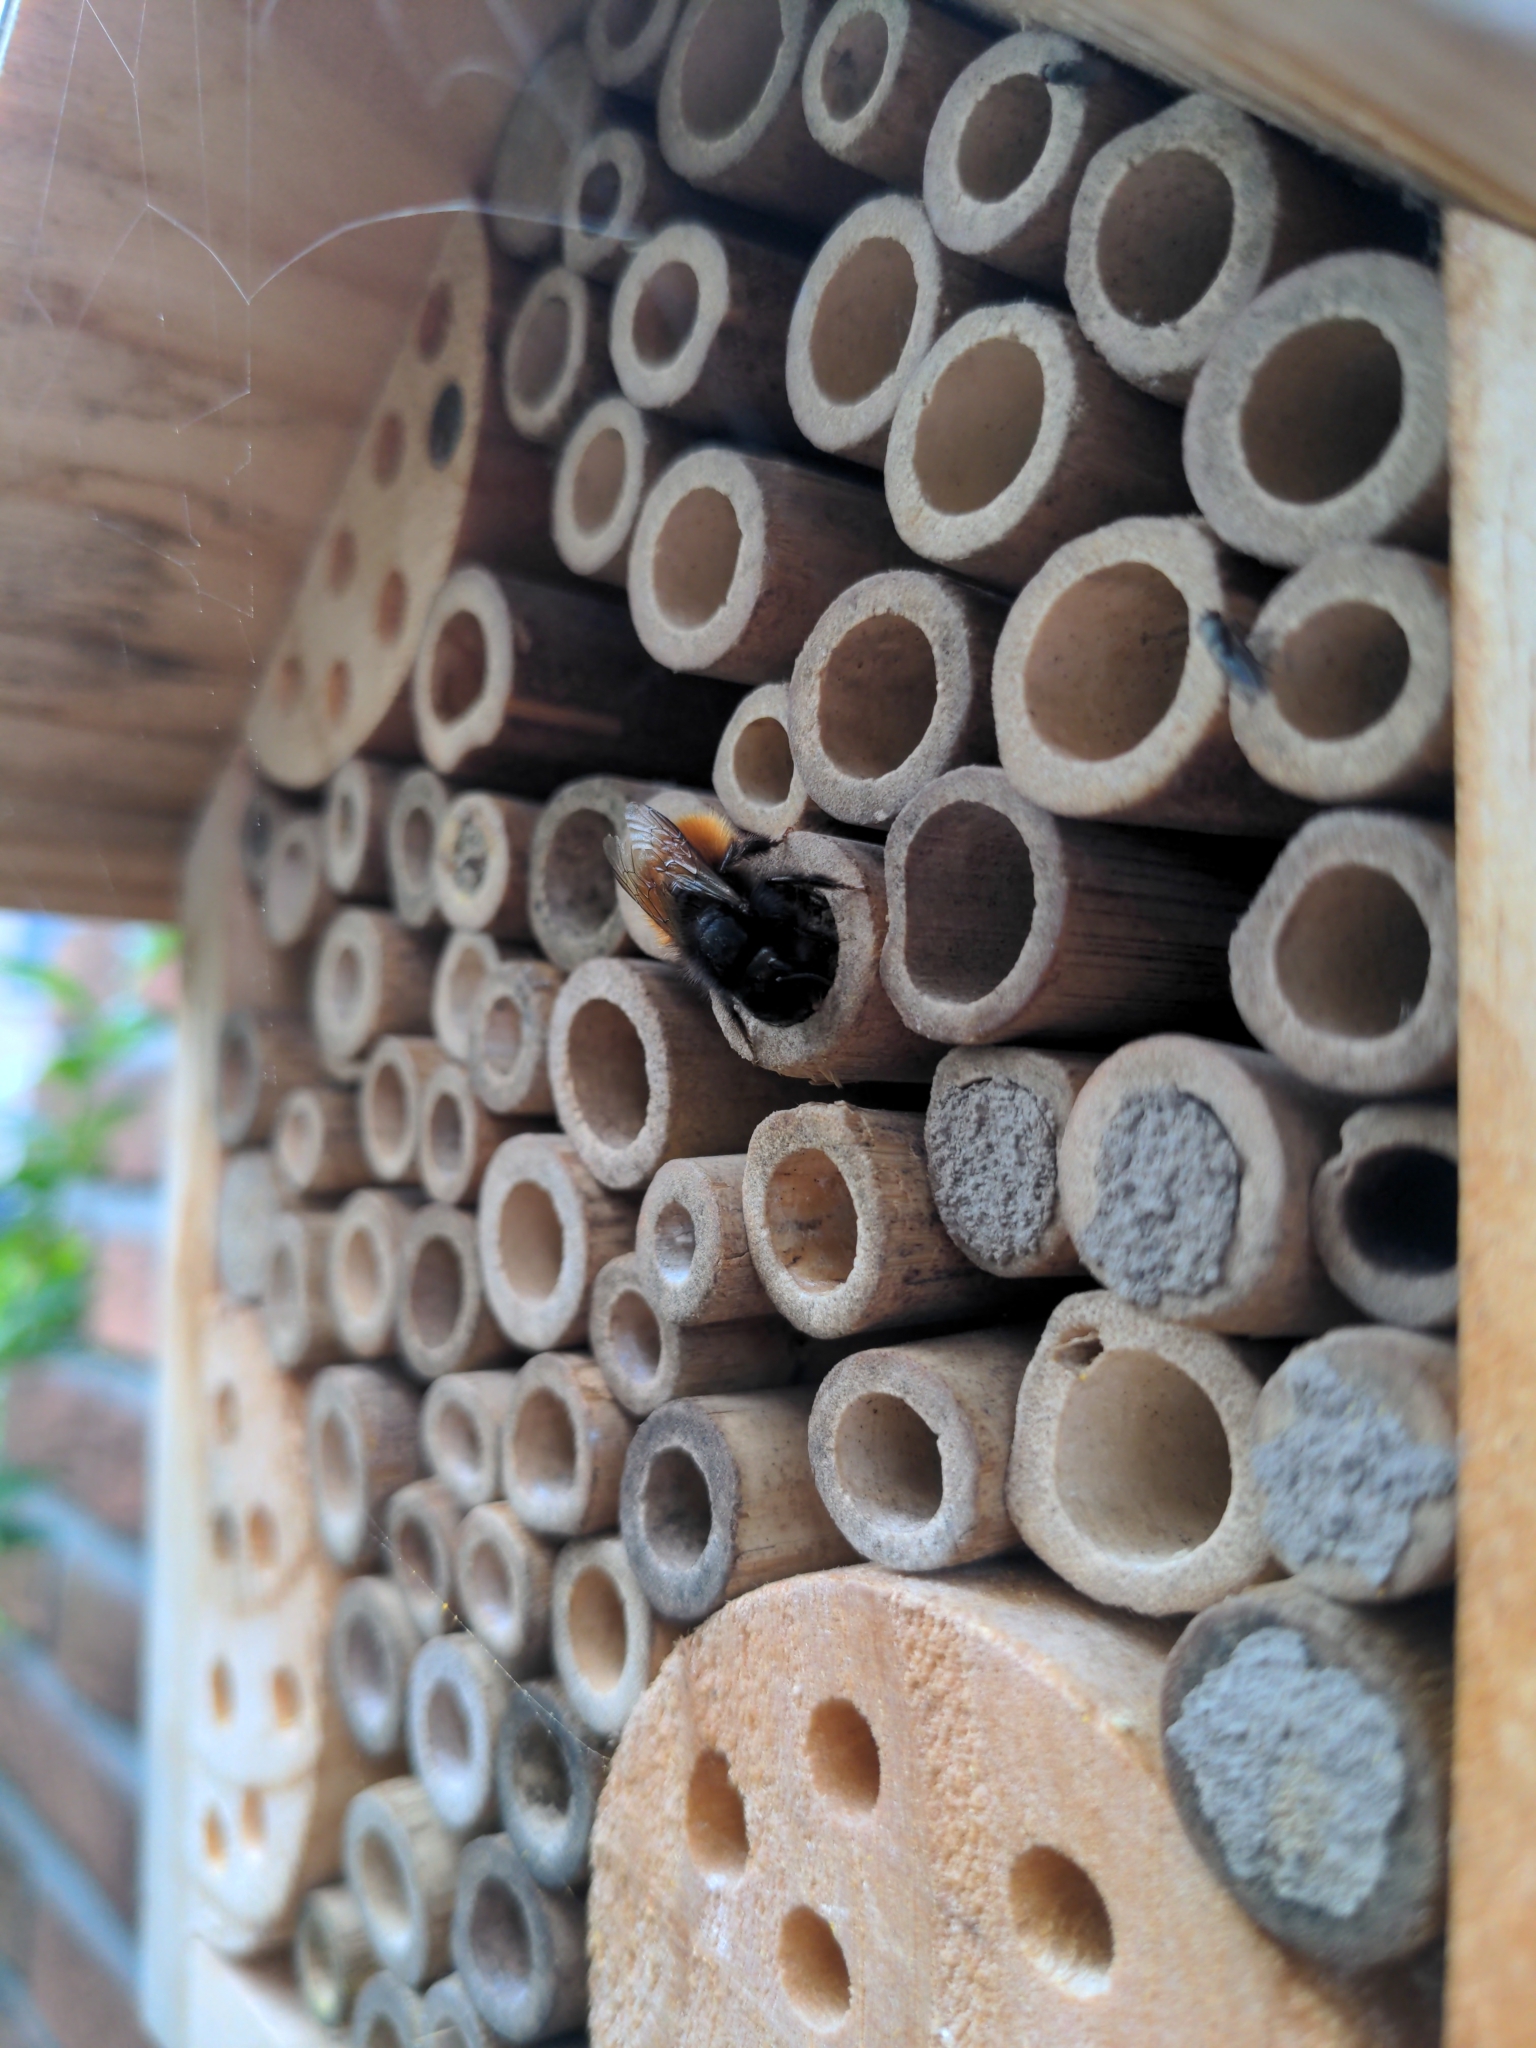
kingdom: Animalia
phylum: Arthropoda
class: Insecta
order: Hymenoptera
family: Megachilidae
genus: Osmia
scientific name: Osmia cornuta
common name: Mason bee
